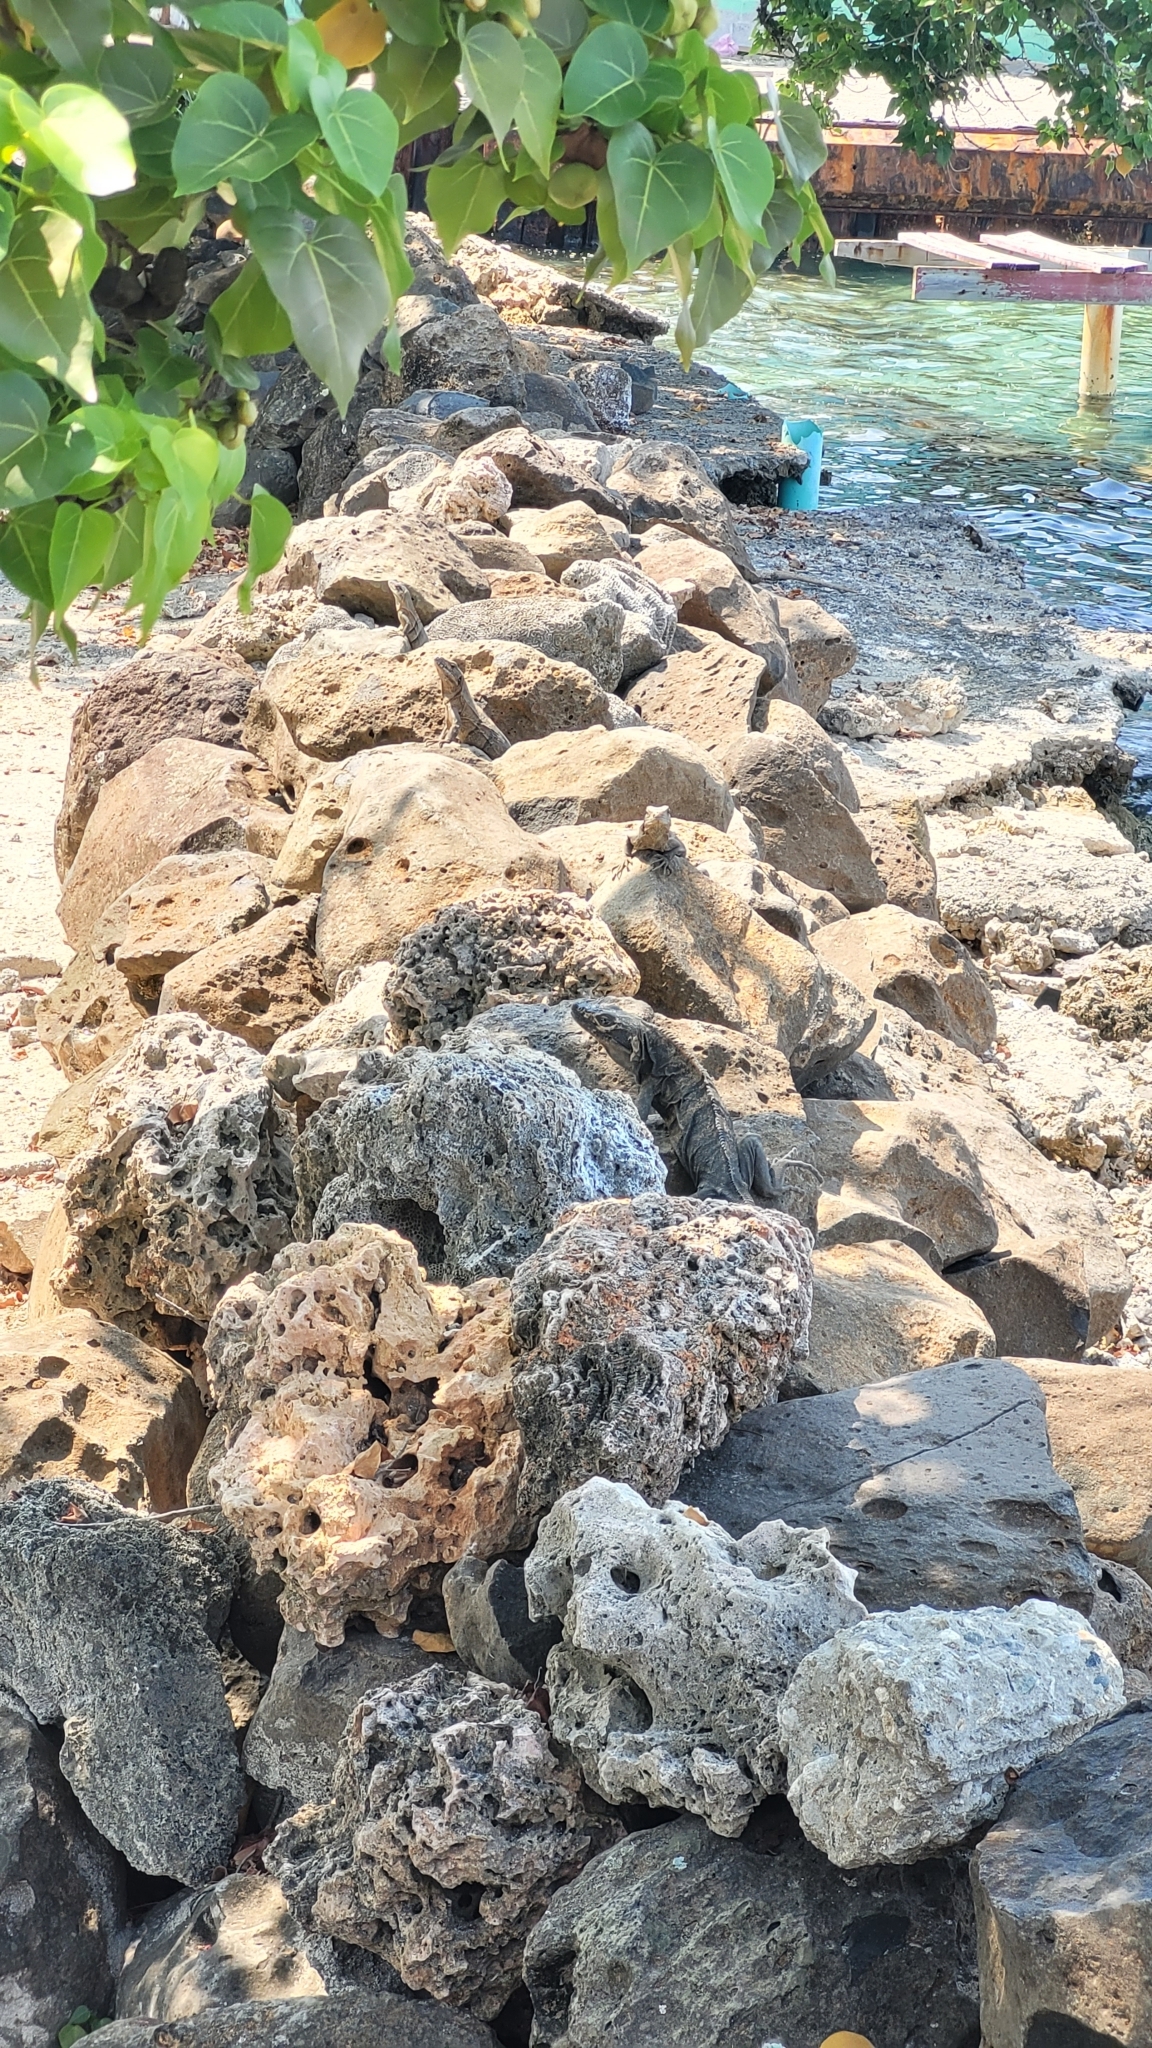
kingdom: Animalia
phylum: Chordata
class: Squamata
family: Iguanidae
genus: Ctenosaura
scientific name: Ctenosaura similis
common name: Black spiny-tailed iguana
